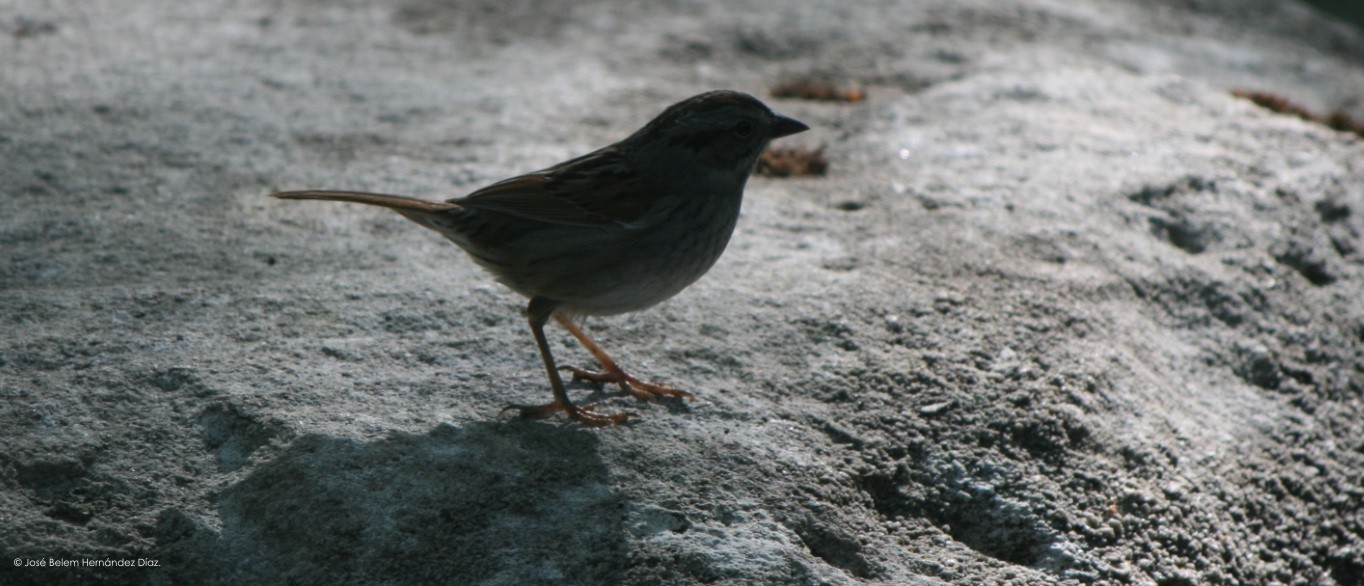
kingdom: Animalia
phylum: Chordata
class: Aves
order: Passeriformes
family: Passerellidae
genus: Melospiza
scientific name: Melospiza melodia
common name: Song sparrow
